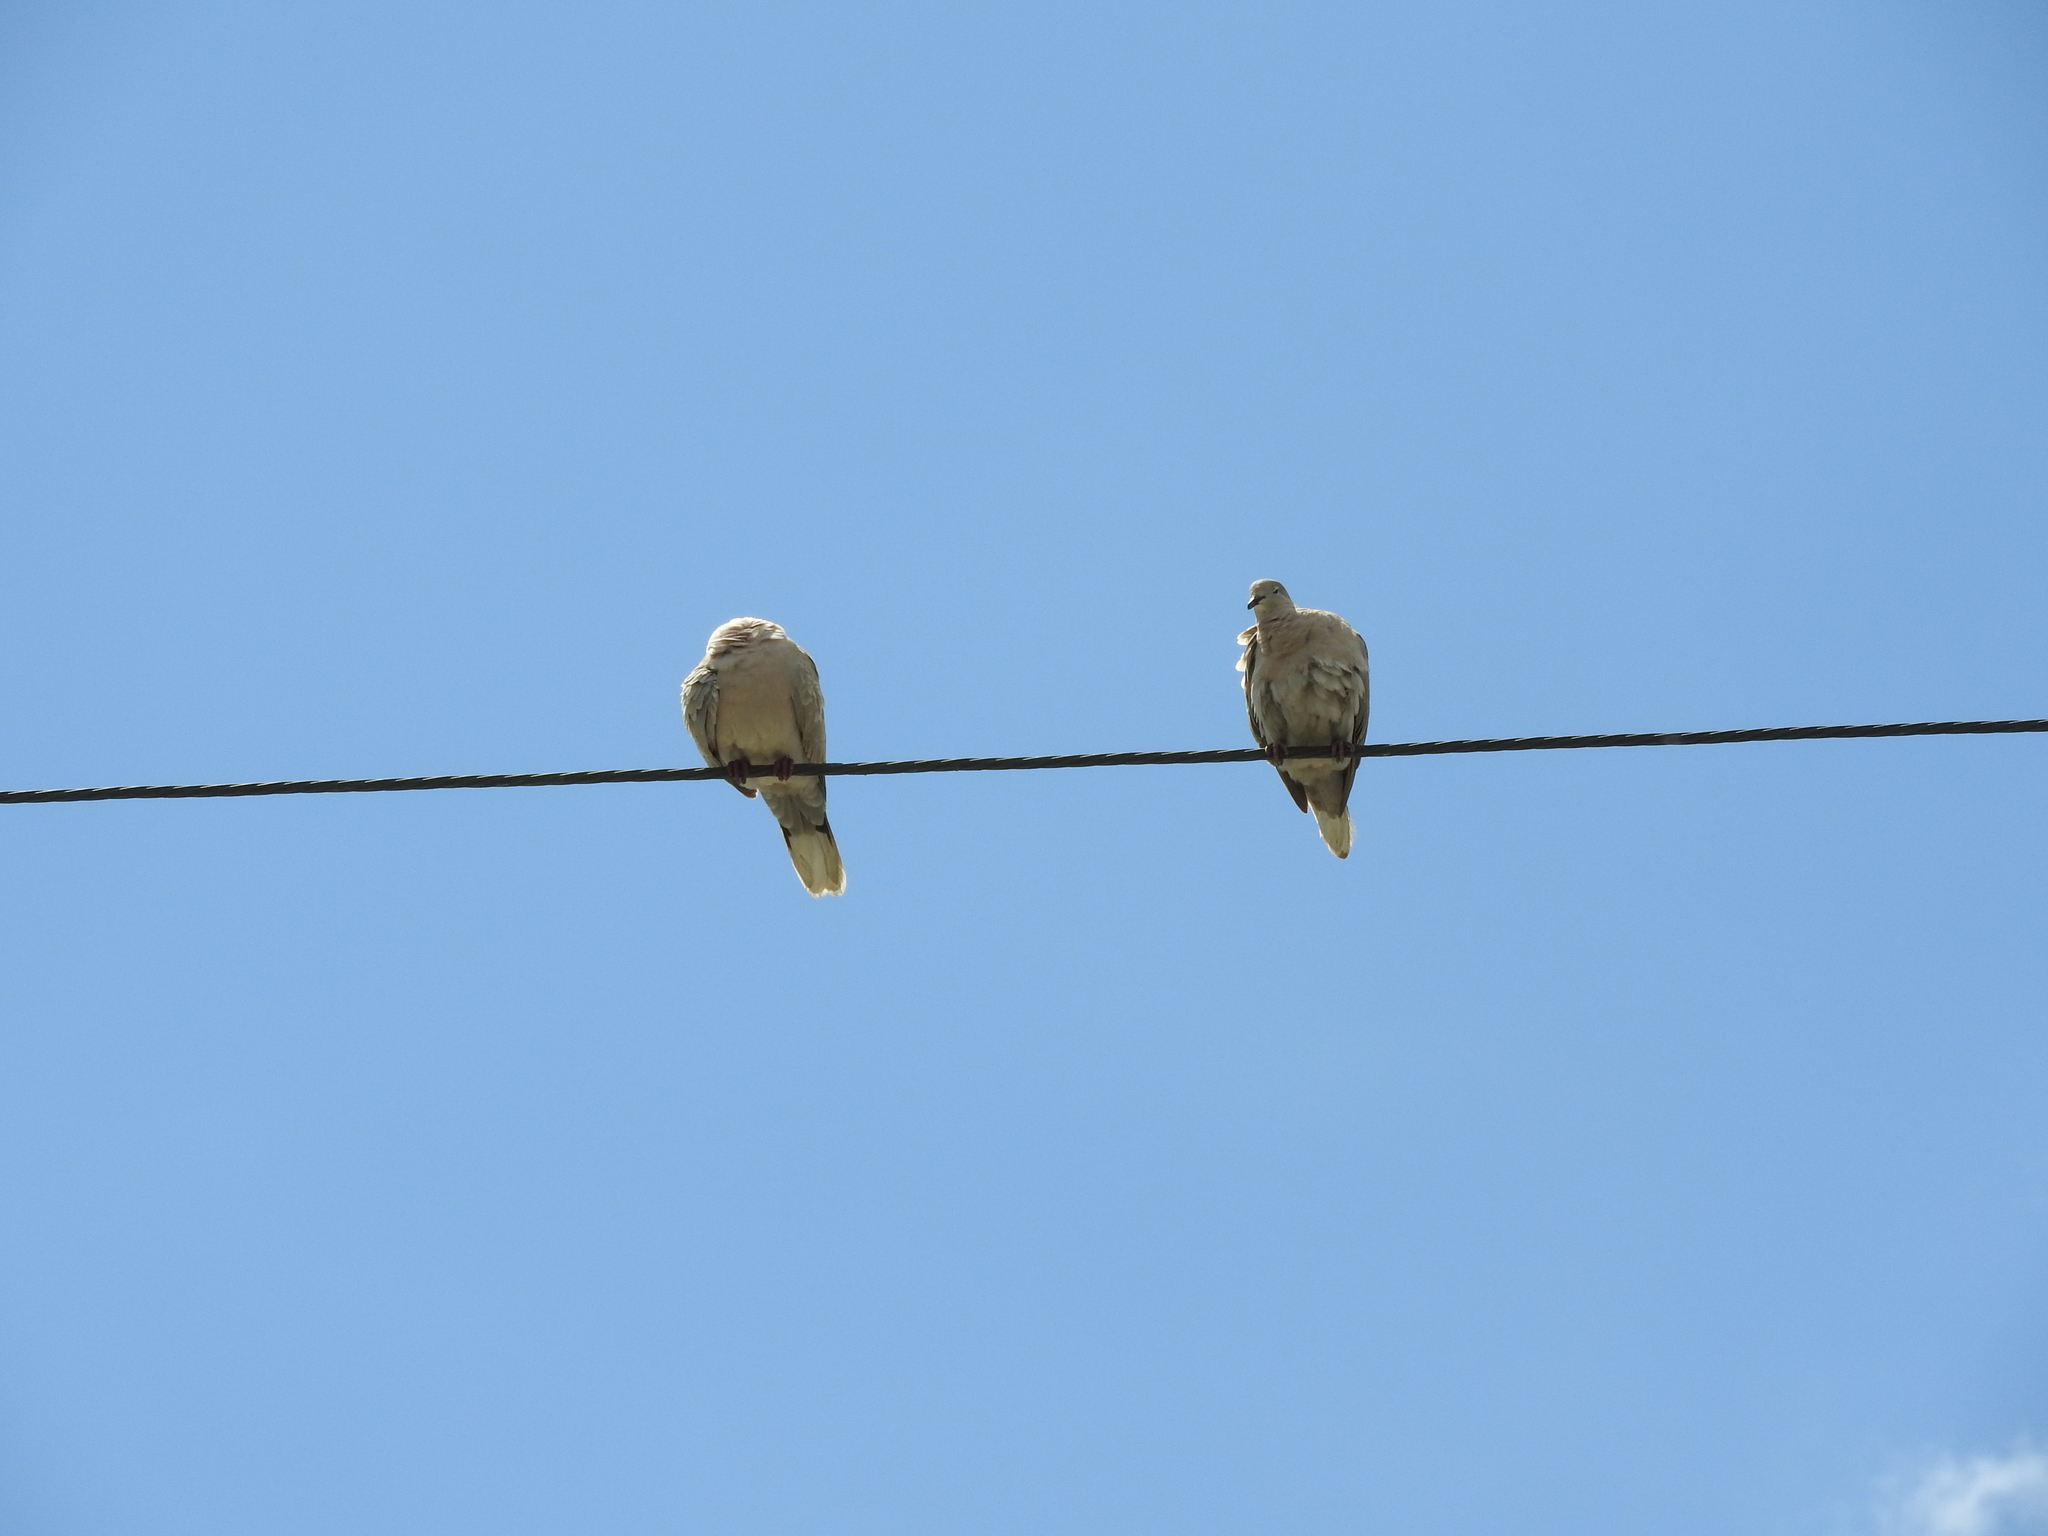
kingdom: Animalia
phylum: Chordata
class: Aves
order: Columbiformes
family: Columbidae
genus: Streptopelia
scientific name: Streptopelia decaocto
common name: Eurasian collared dove
